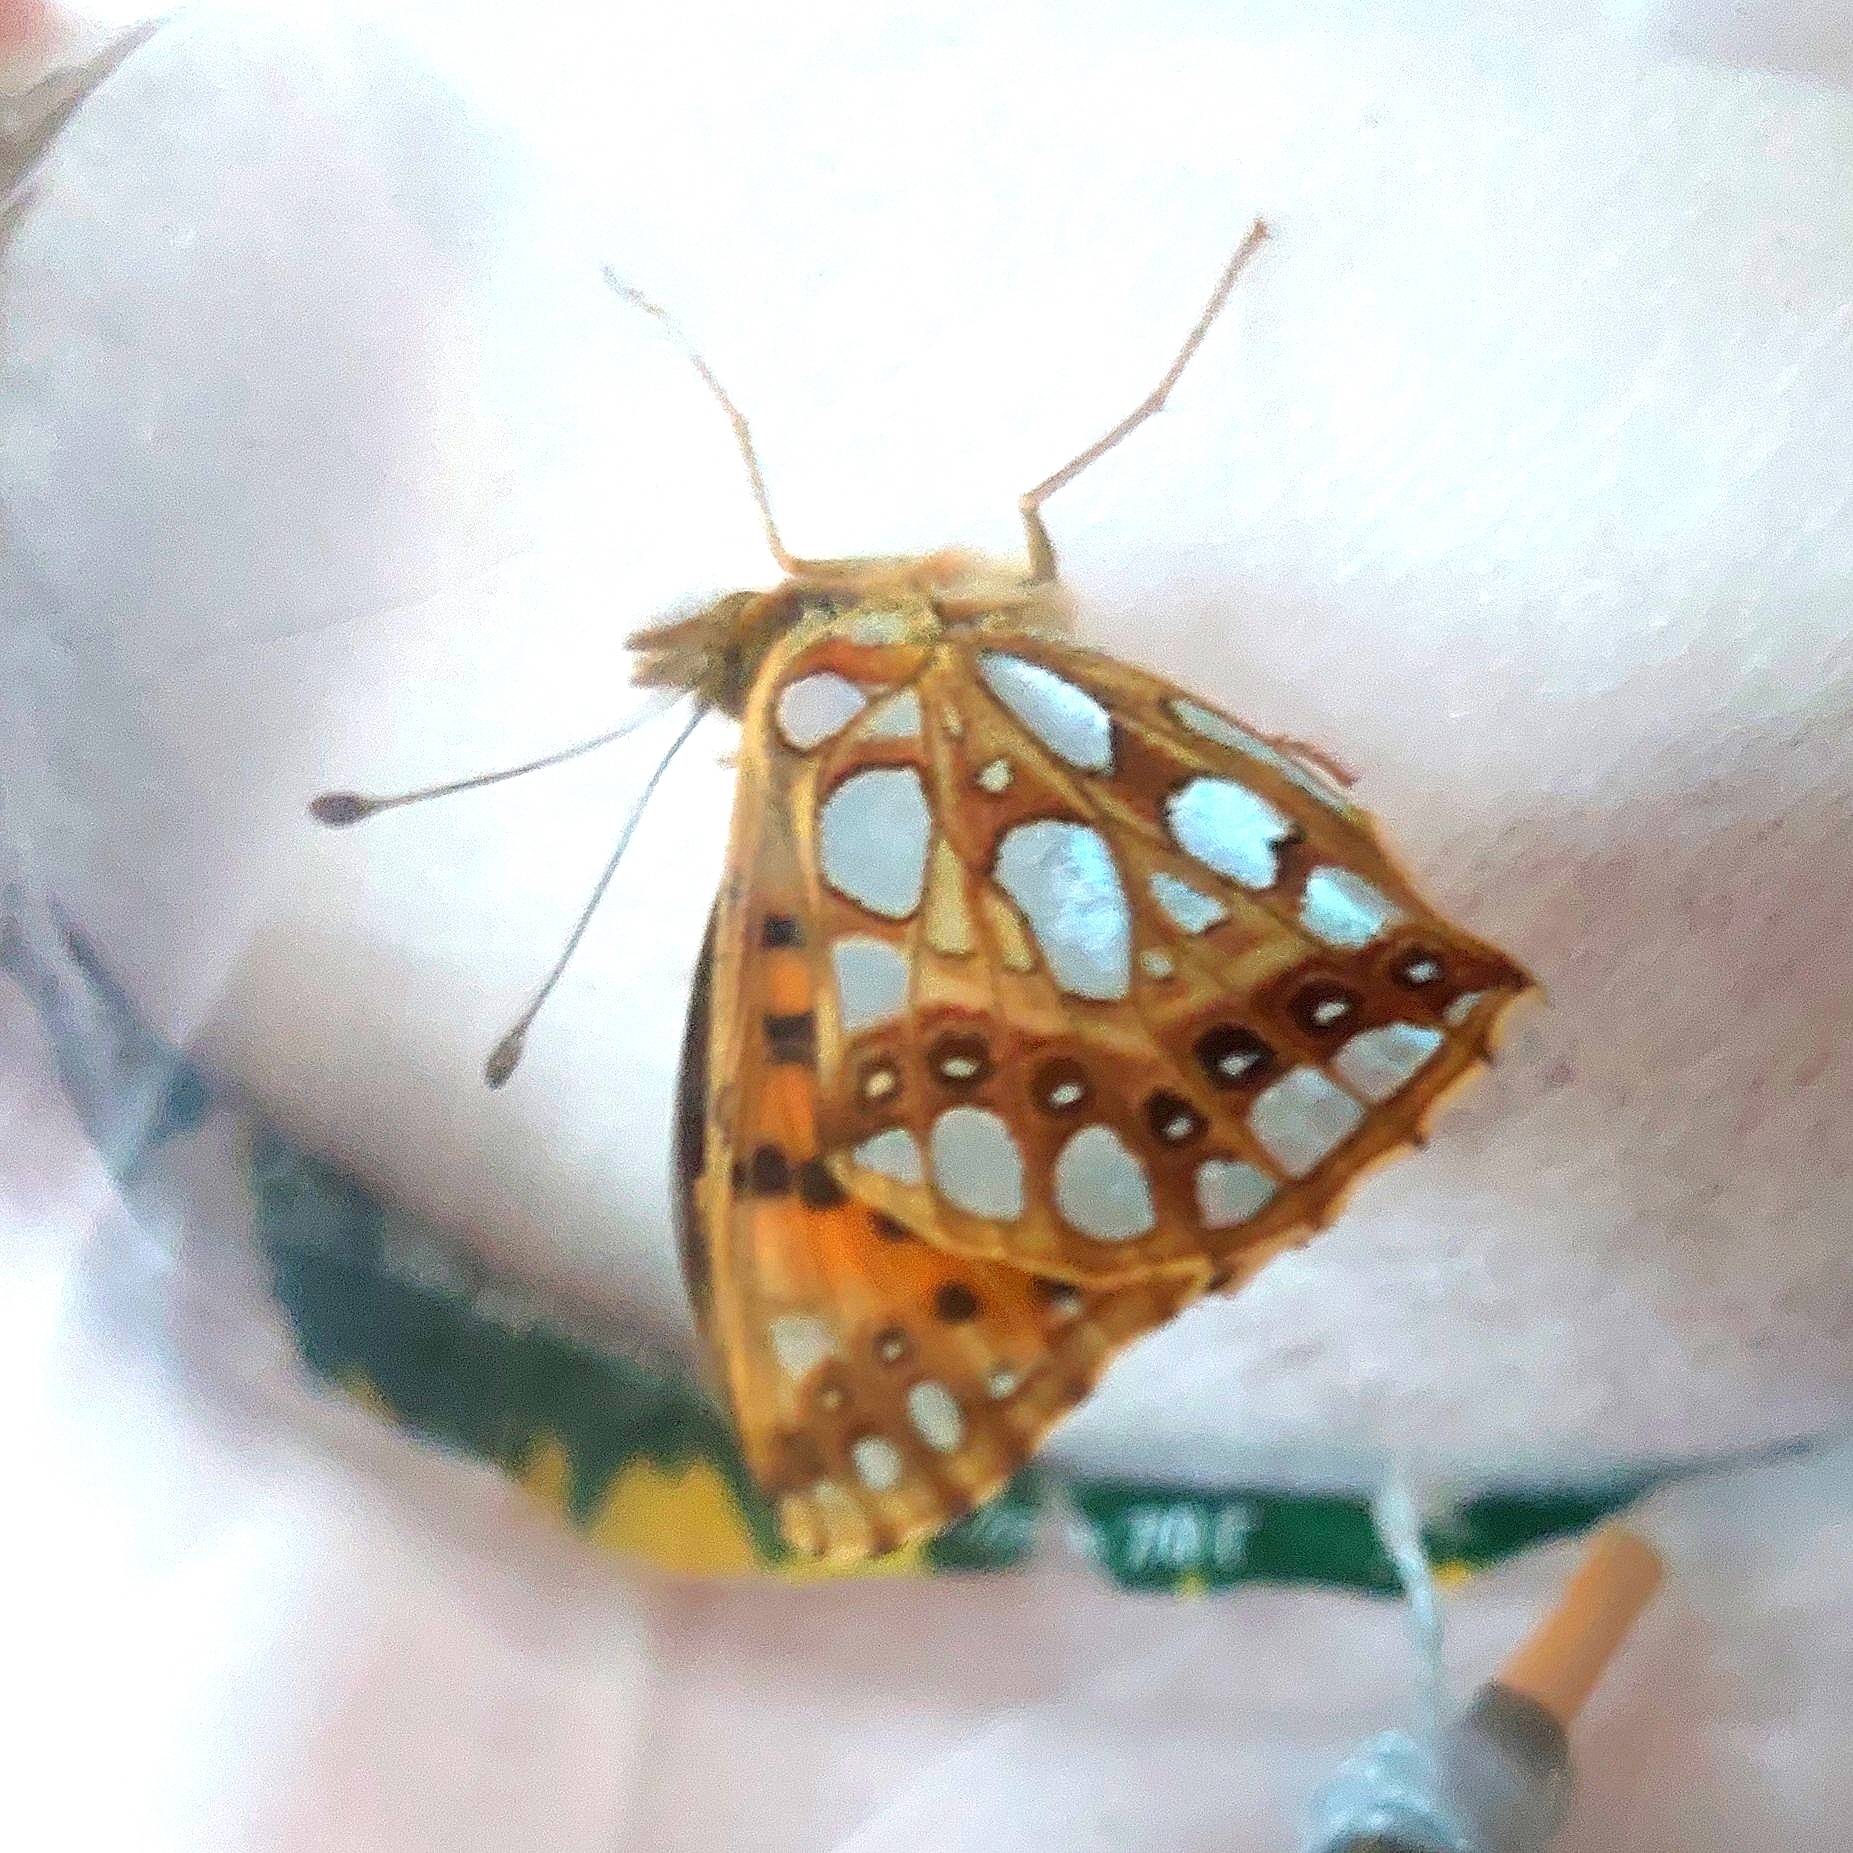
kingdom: Animalia
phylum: Arthropoda
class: Insecta
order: Lepidoptera
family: Nymphalidae
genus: Issoria
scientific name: Issoria lathonia
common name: Queen of spain fritillary
